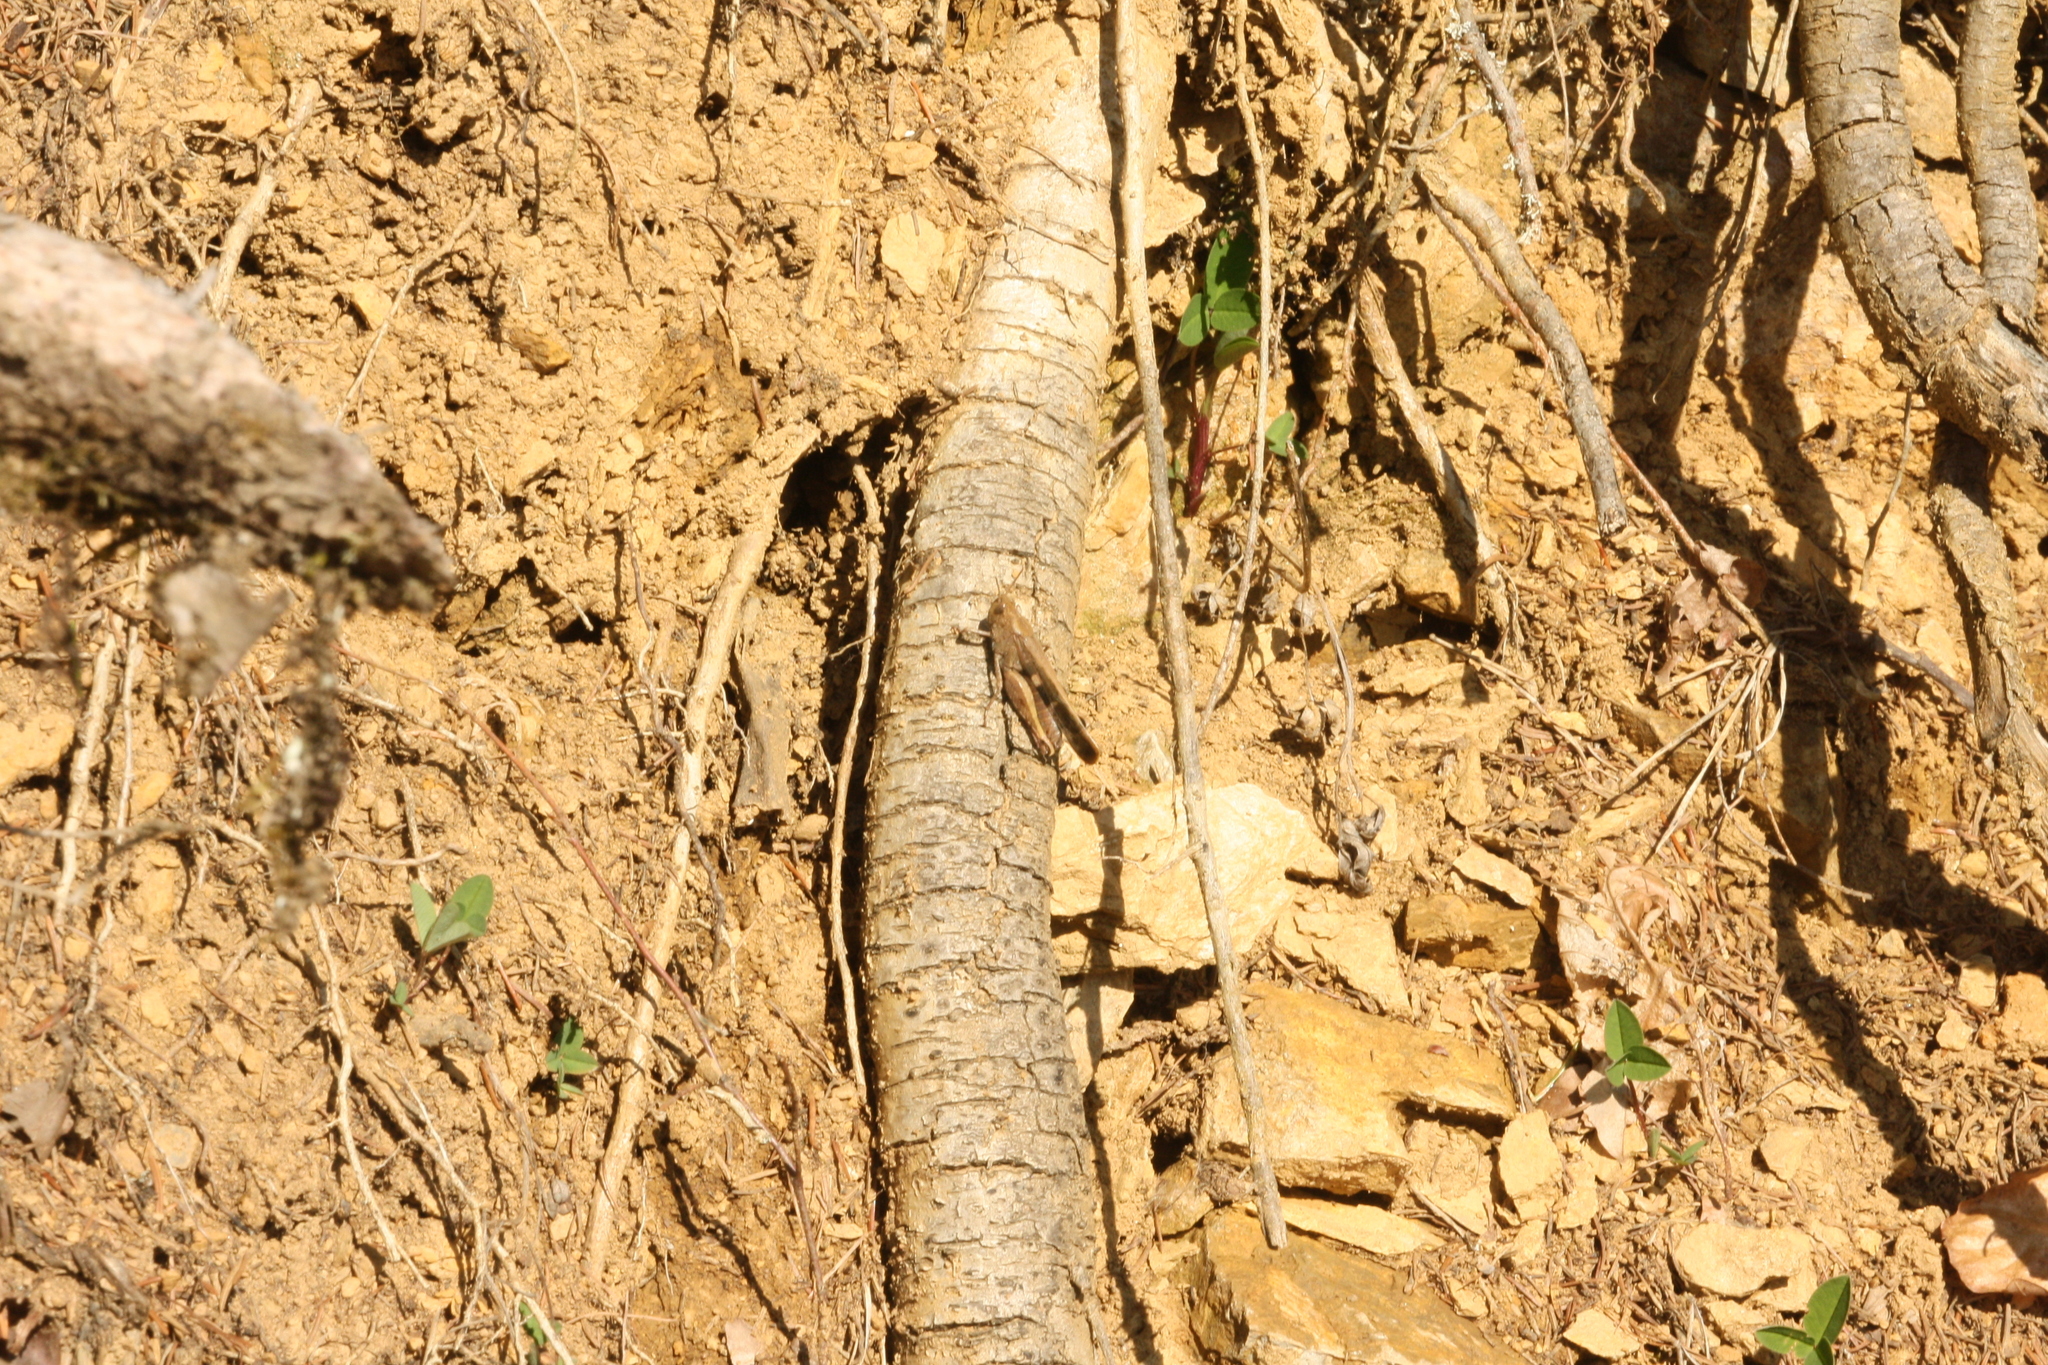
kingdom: Animalia
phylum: Arthropoda
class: Insecta
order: Orthoptera
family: Acrididae
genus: Aiolopus
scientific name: Aiolopus strepens
